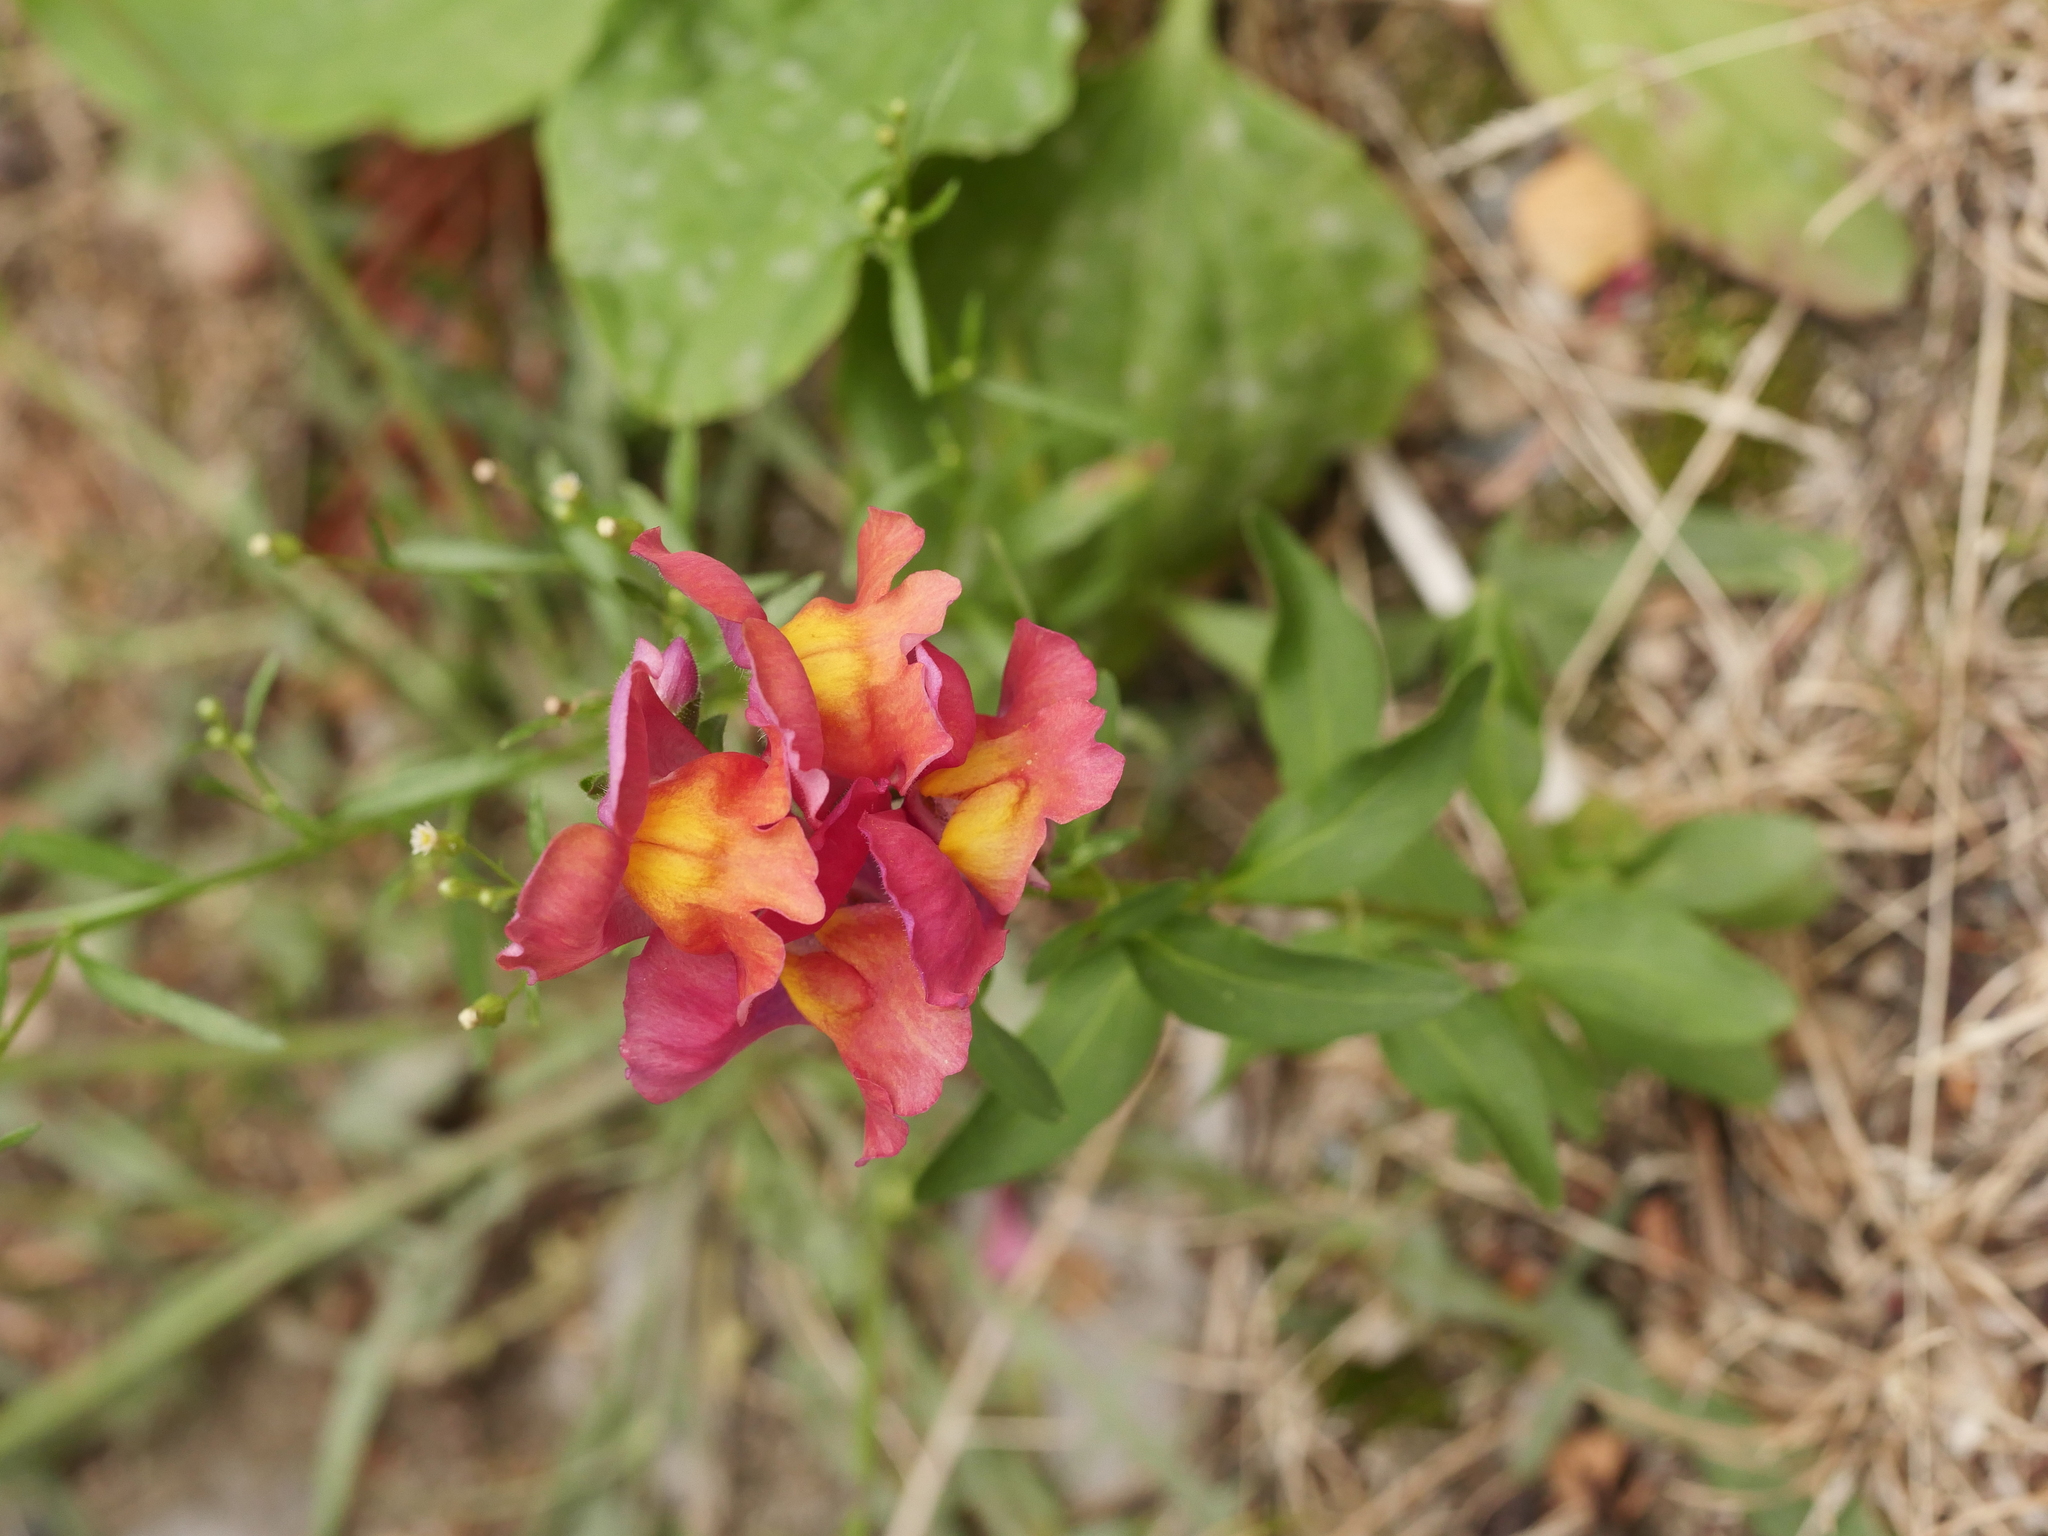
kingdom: Plantae
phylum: Tracheophyta
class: Magnoliopsida
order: Lamiales
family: Plantaginaceae
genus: Antirrhinum
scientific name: Antirrhinum majus
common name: Snapdragon
